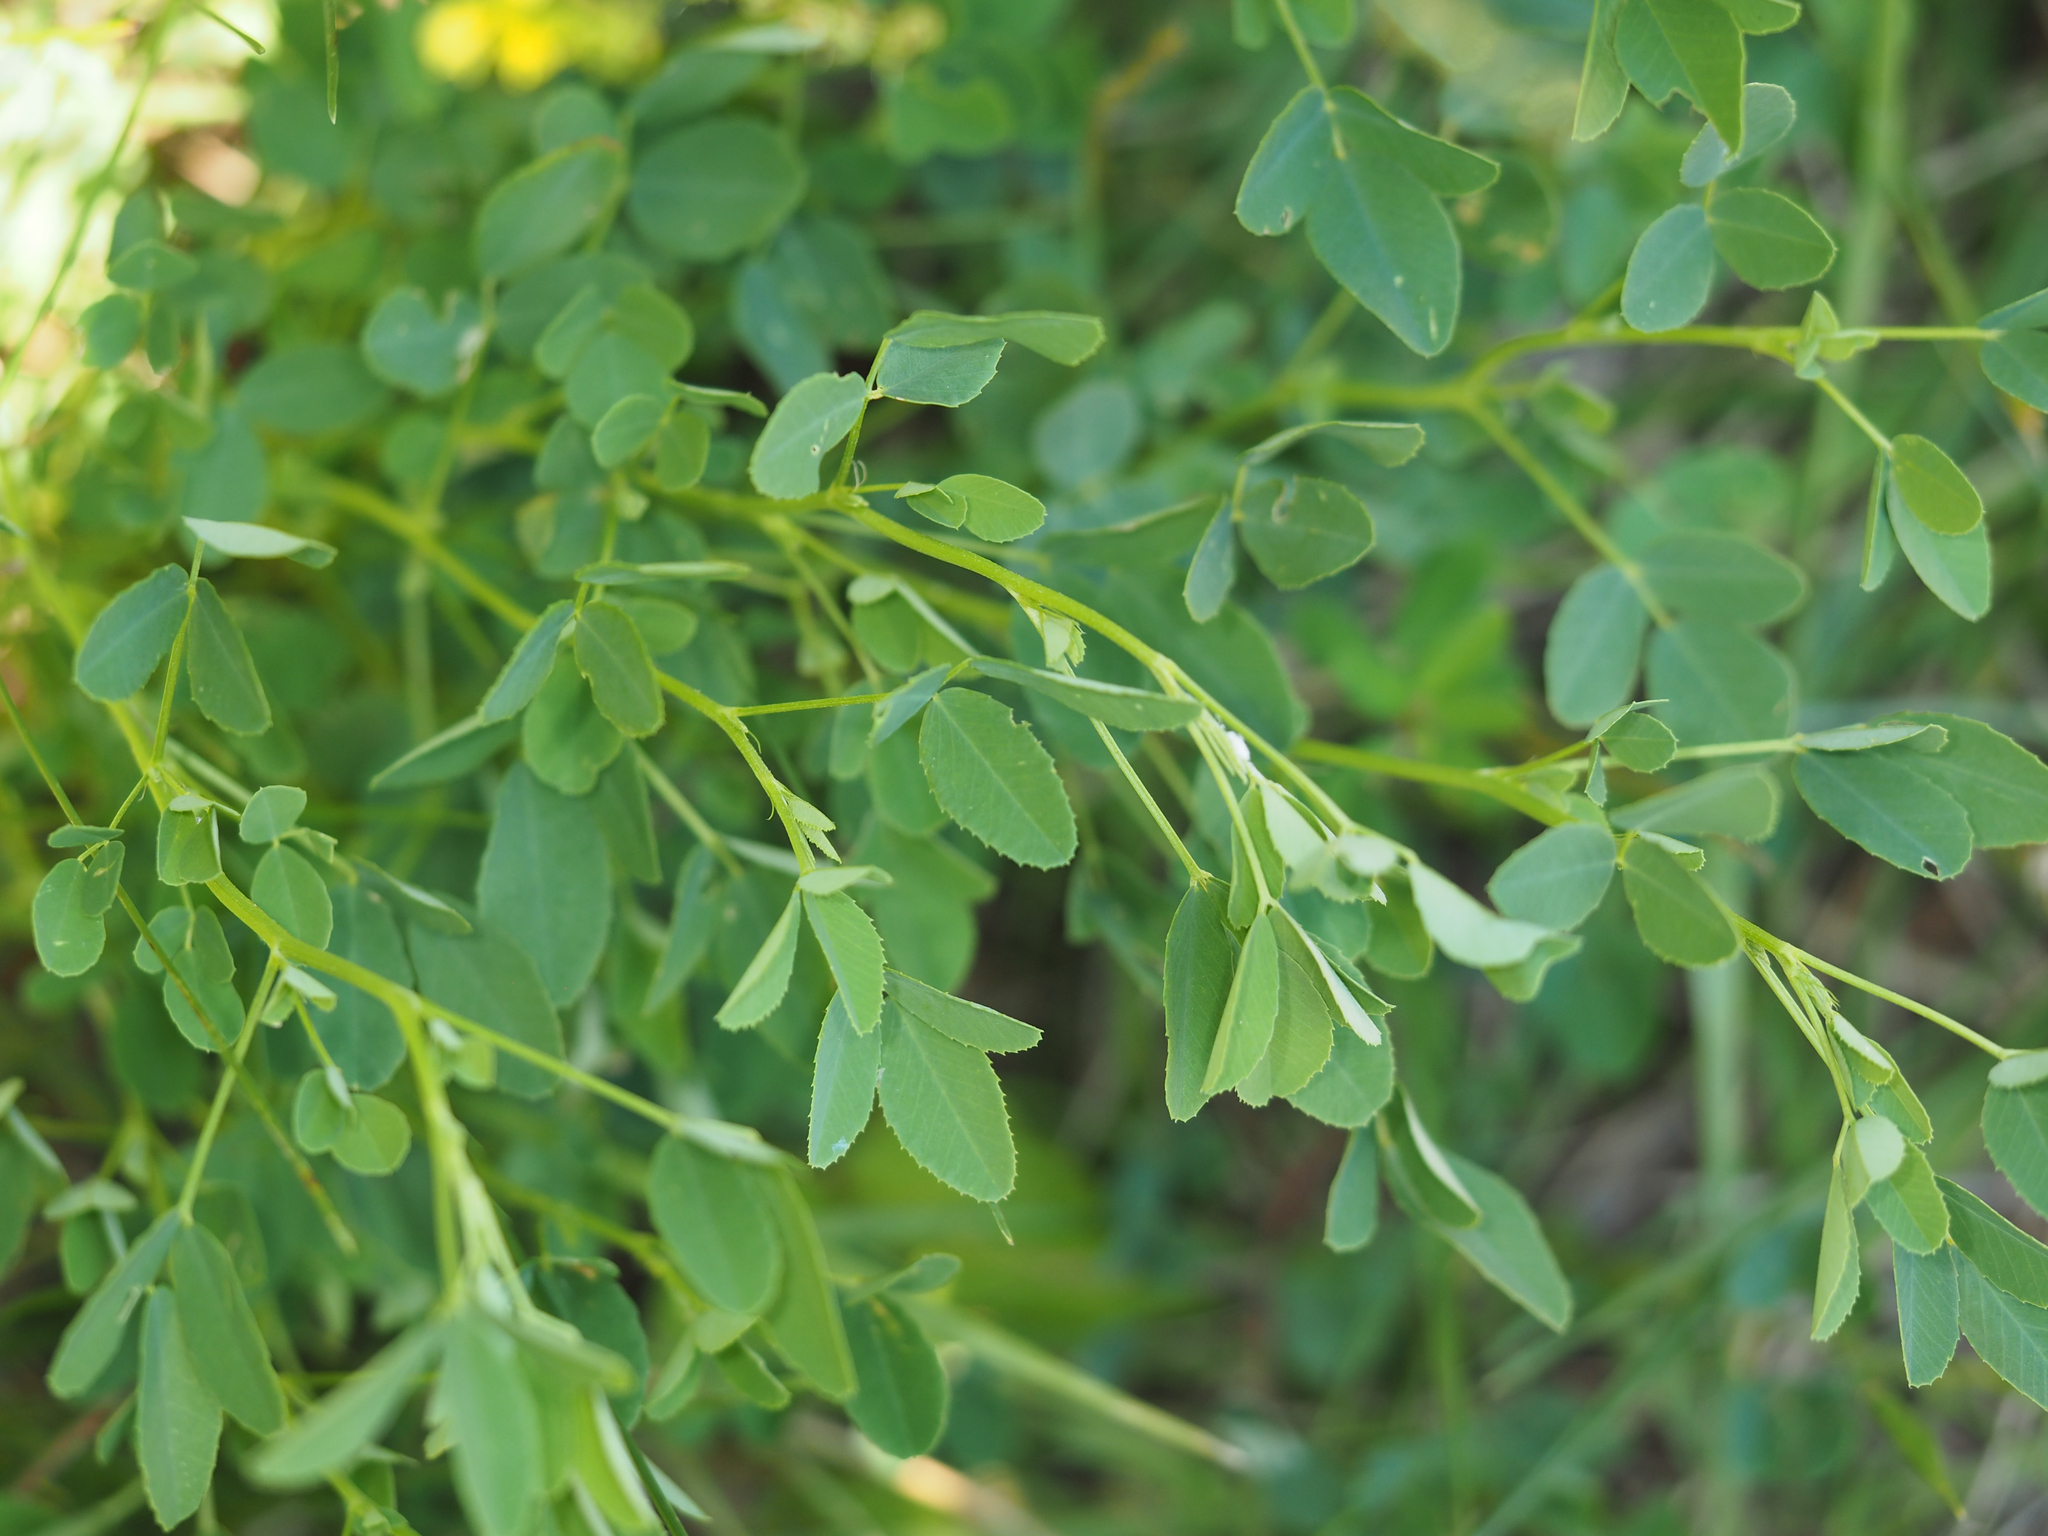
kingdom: Plantae
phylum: Tracheophyta
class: Magnoliopsida
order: Fabales
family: Fabaceae
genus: Melilotus
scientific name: Melilotus officinalis
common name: Sweetclover
